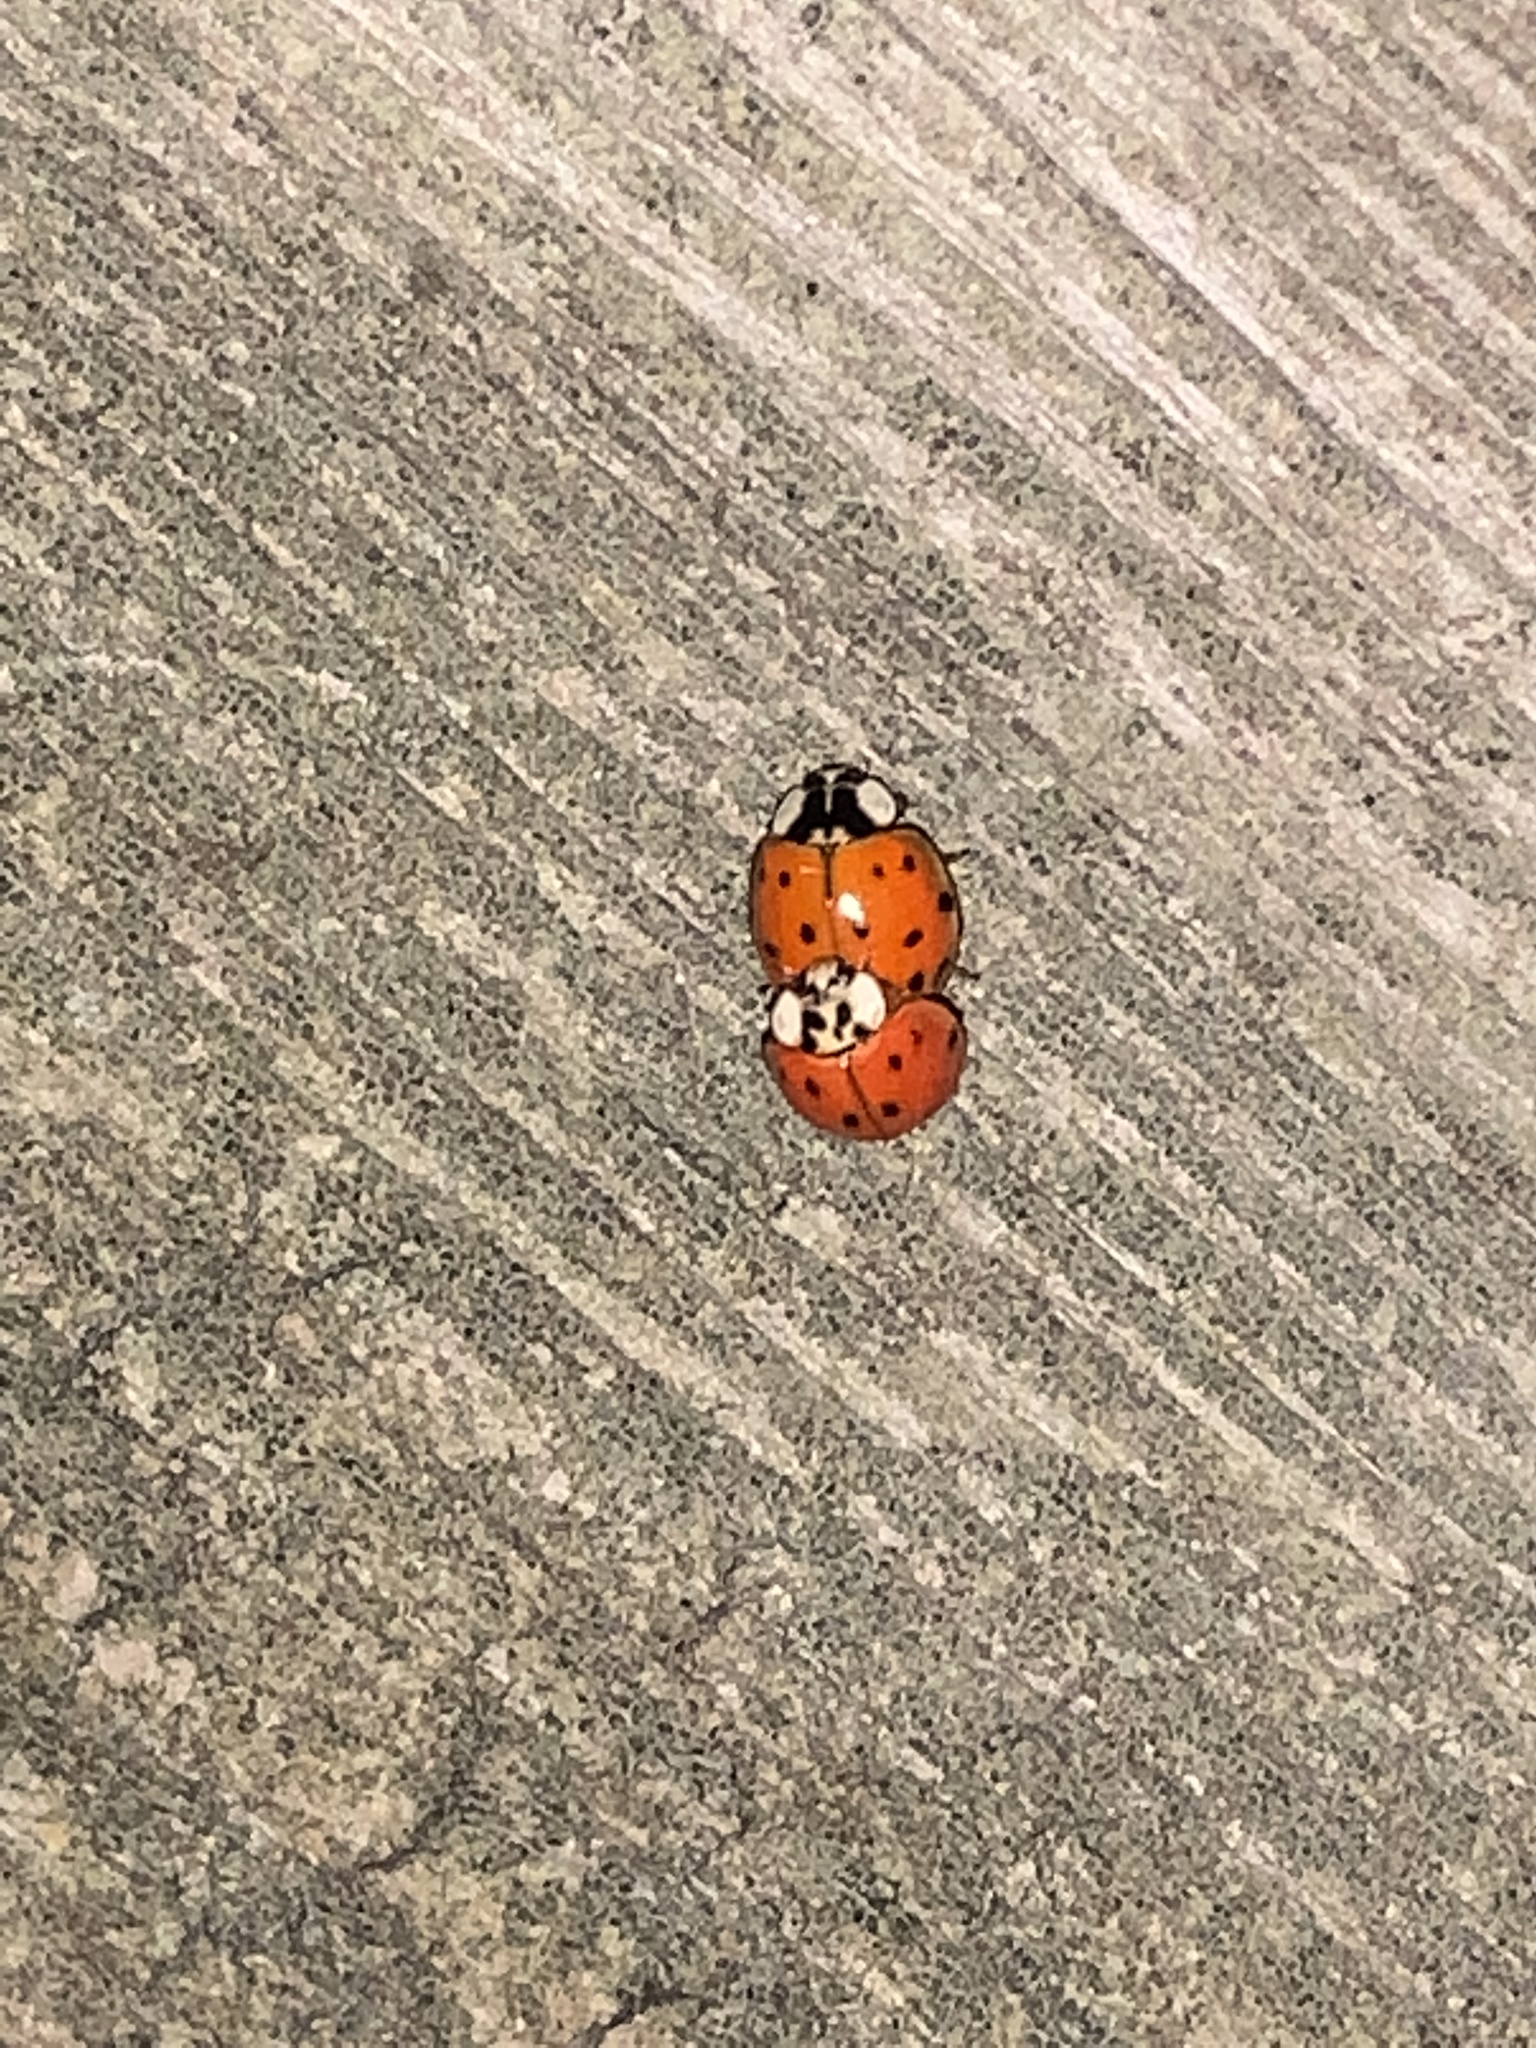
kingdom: Animalia
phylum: Arthropoda
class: Insecta
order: Coleoptera
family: Coccinellidae
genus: Harmonia
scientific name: Harmonia axyridis
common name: Harlequin ladybird
